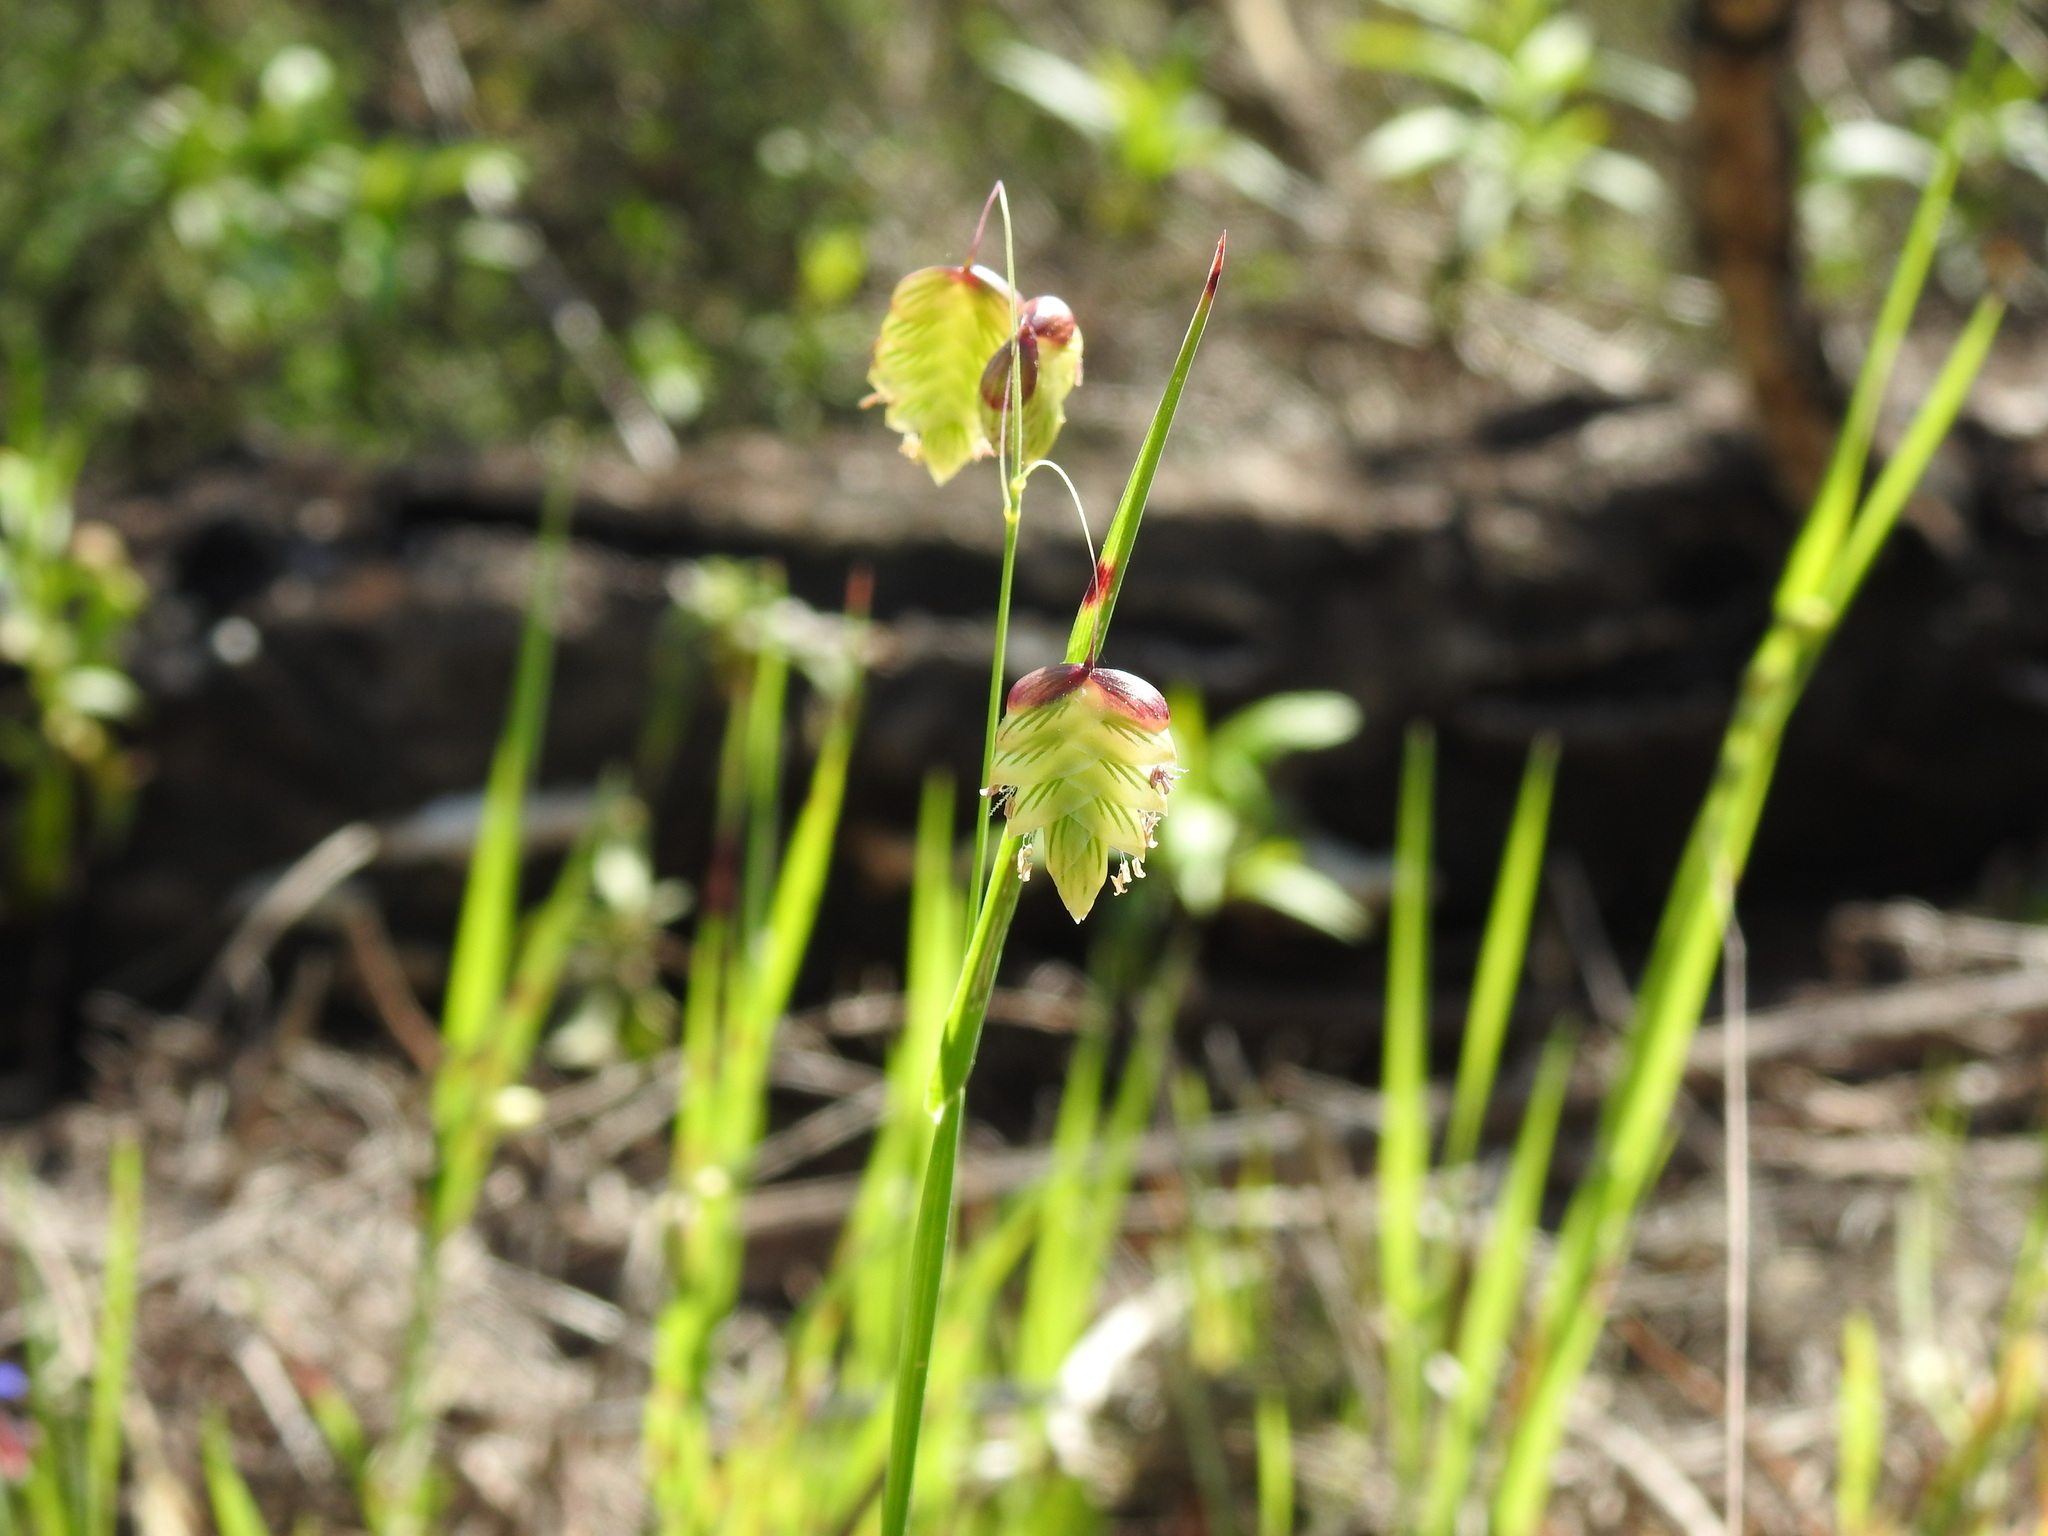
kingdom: Plantae
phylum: Tracheophyta
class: Liliopsida
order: Poales
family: Poaceae
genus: Briza
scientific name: Briza maxima
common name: Big quakinggrass
